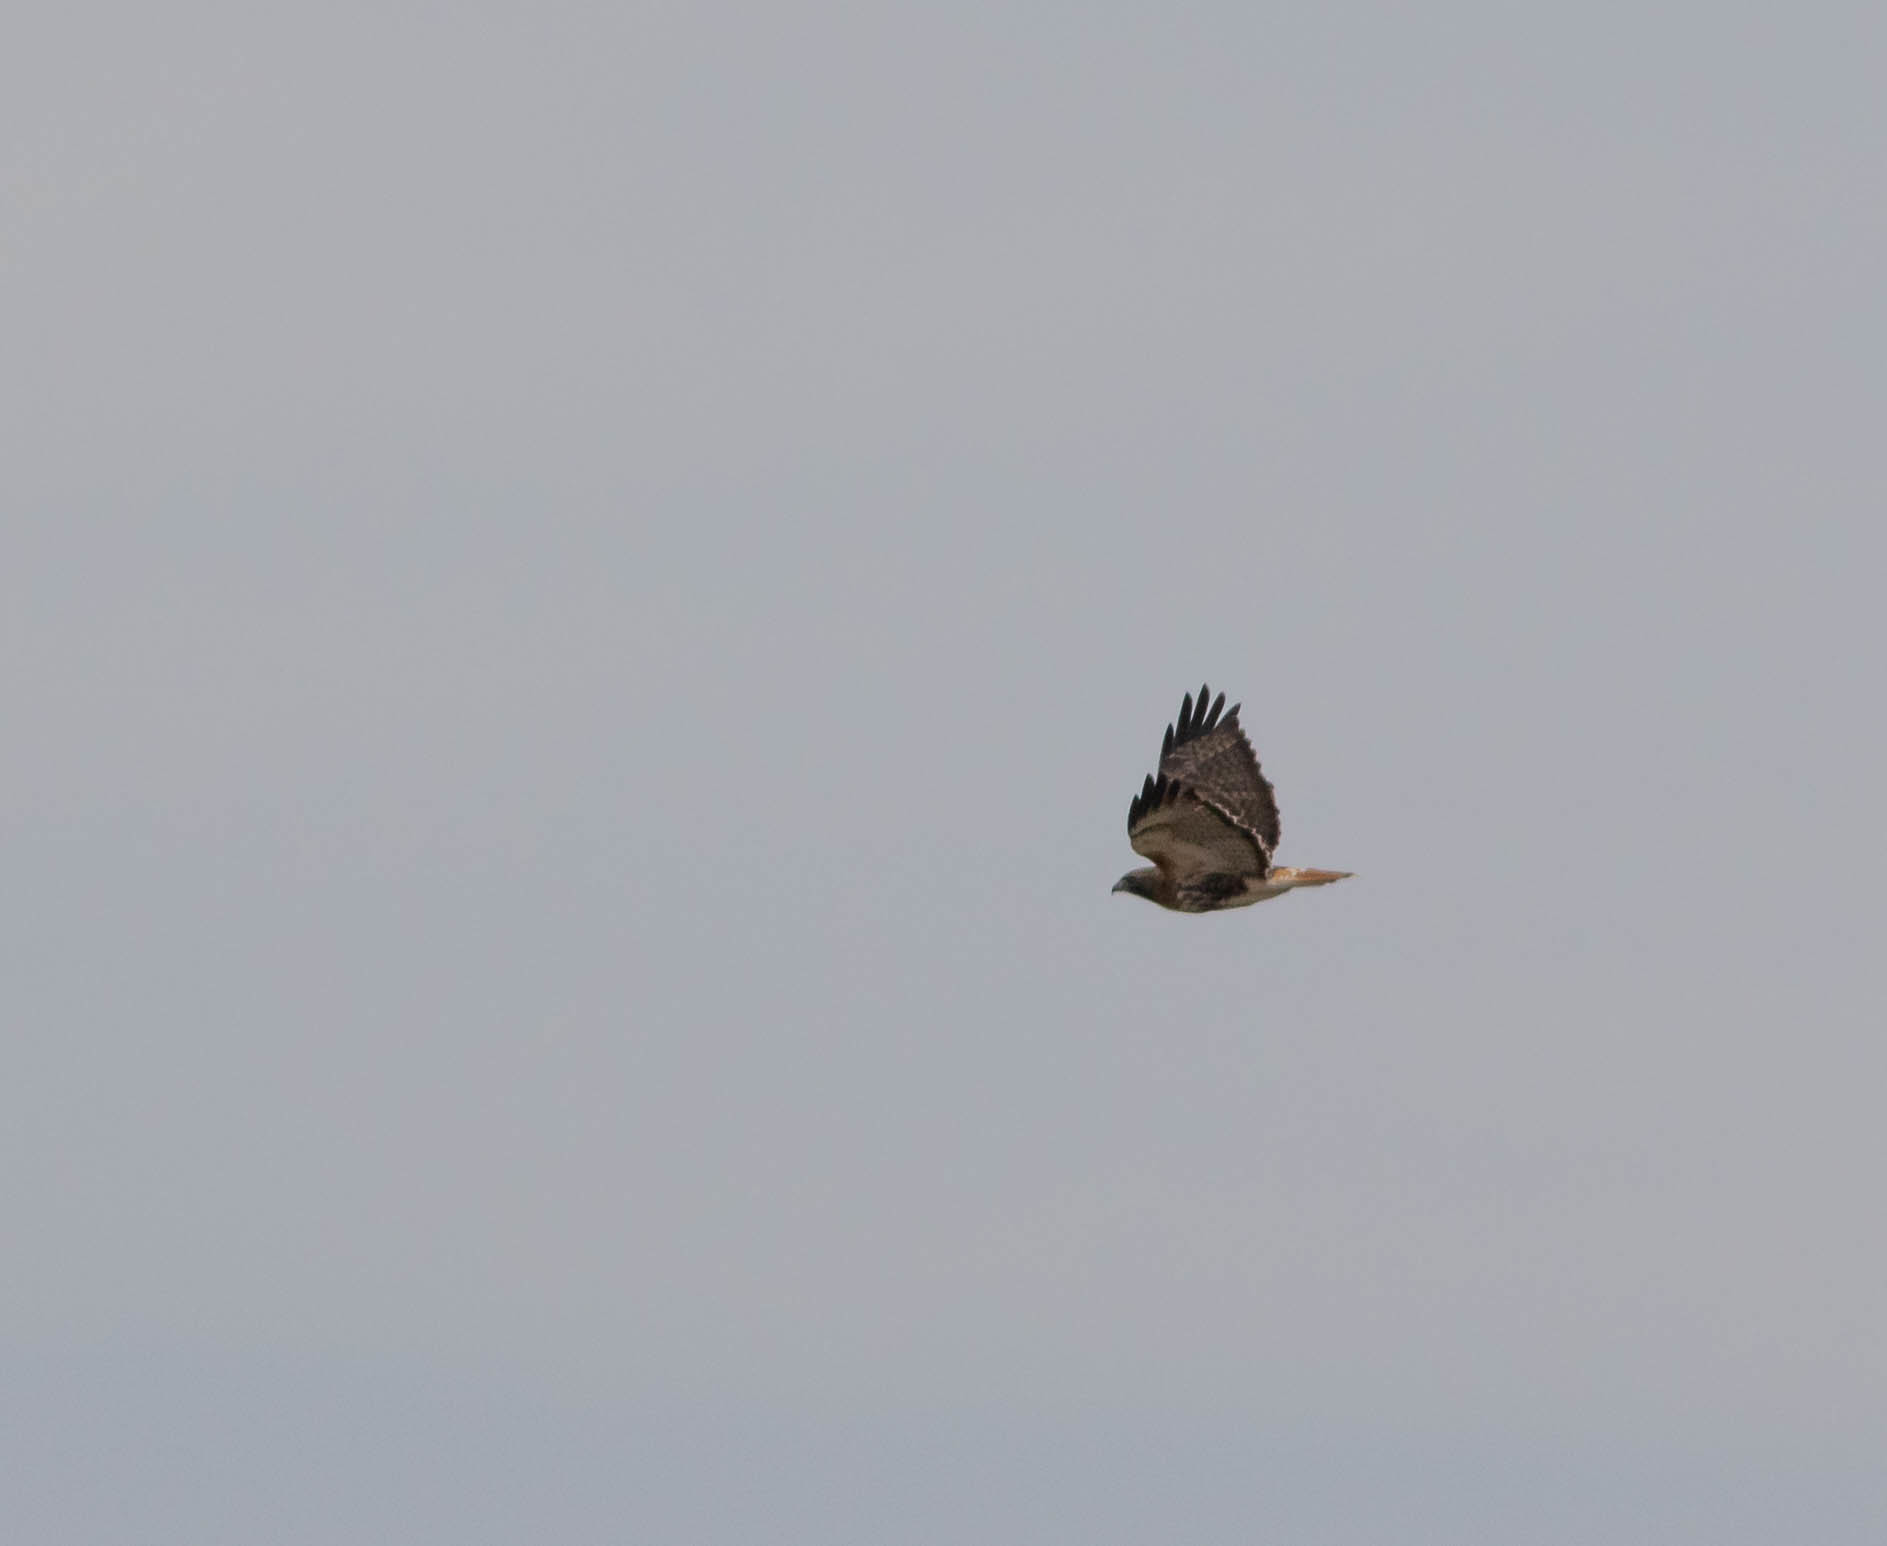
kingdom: Animalia
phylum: Chordata
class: Aves
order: Accipitriformes
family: Accipitridae
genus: Buteo
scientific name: Buteo jamaicensis
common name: Red-tailed hawk
